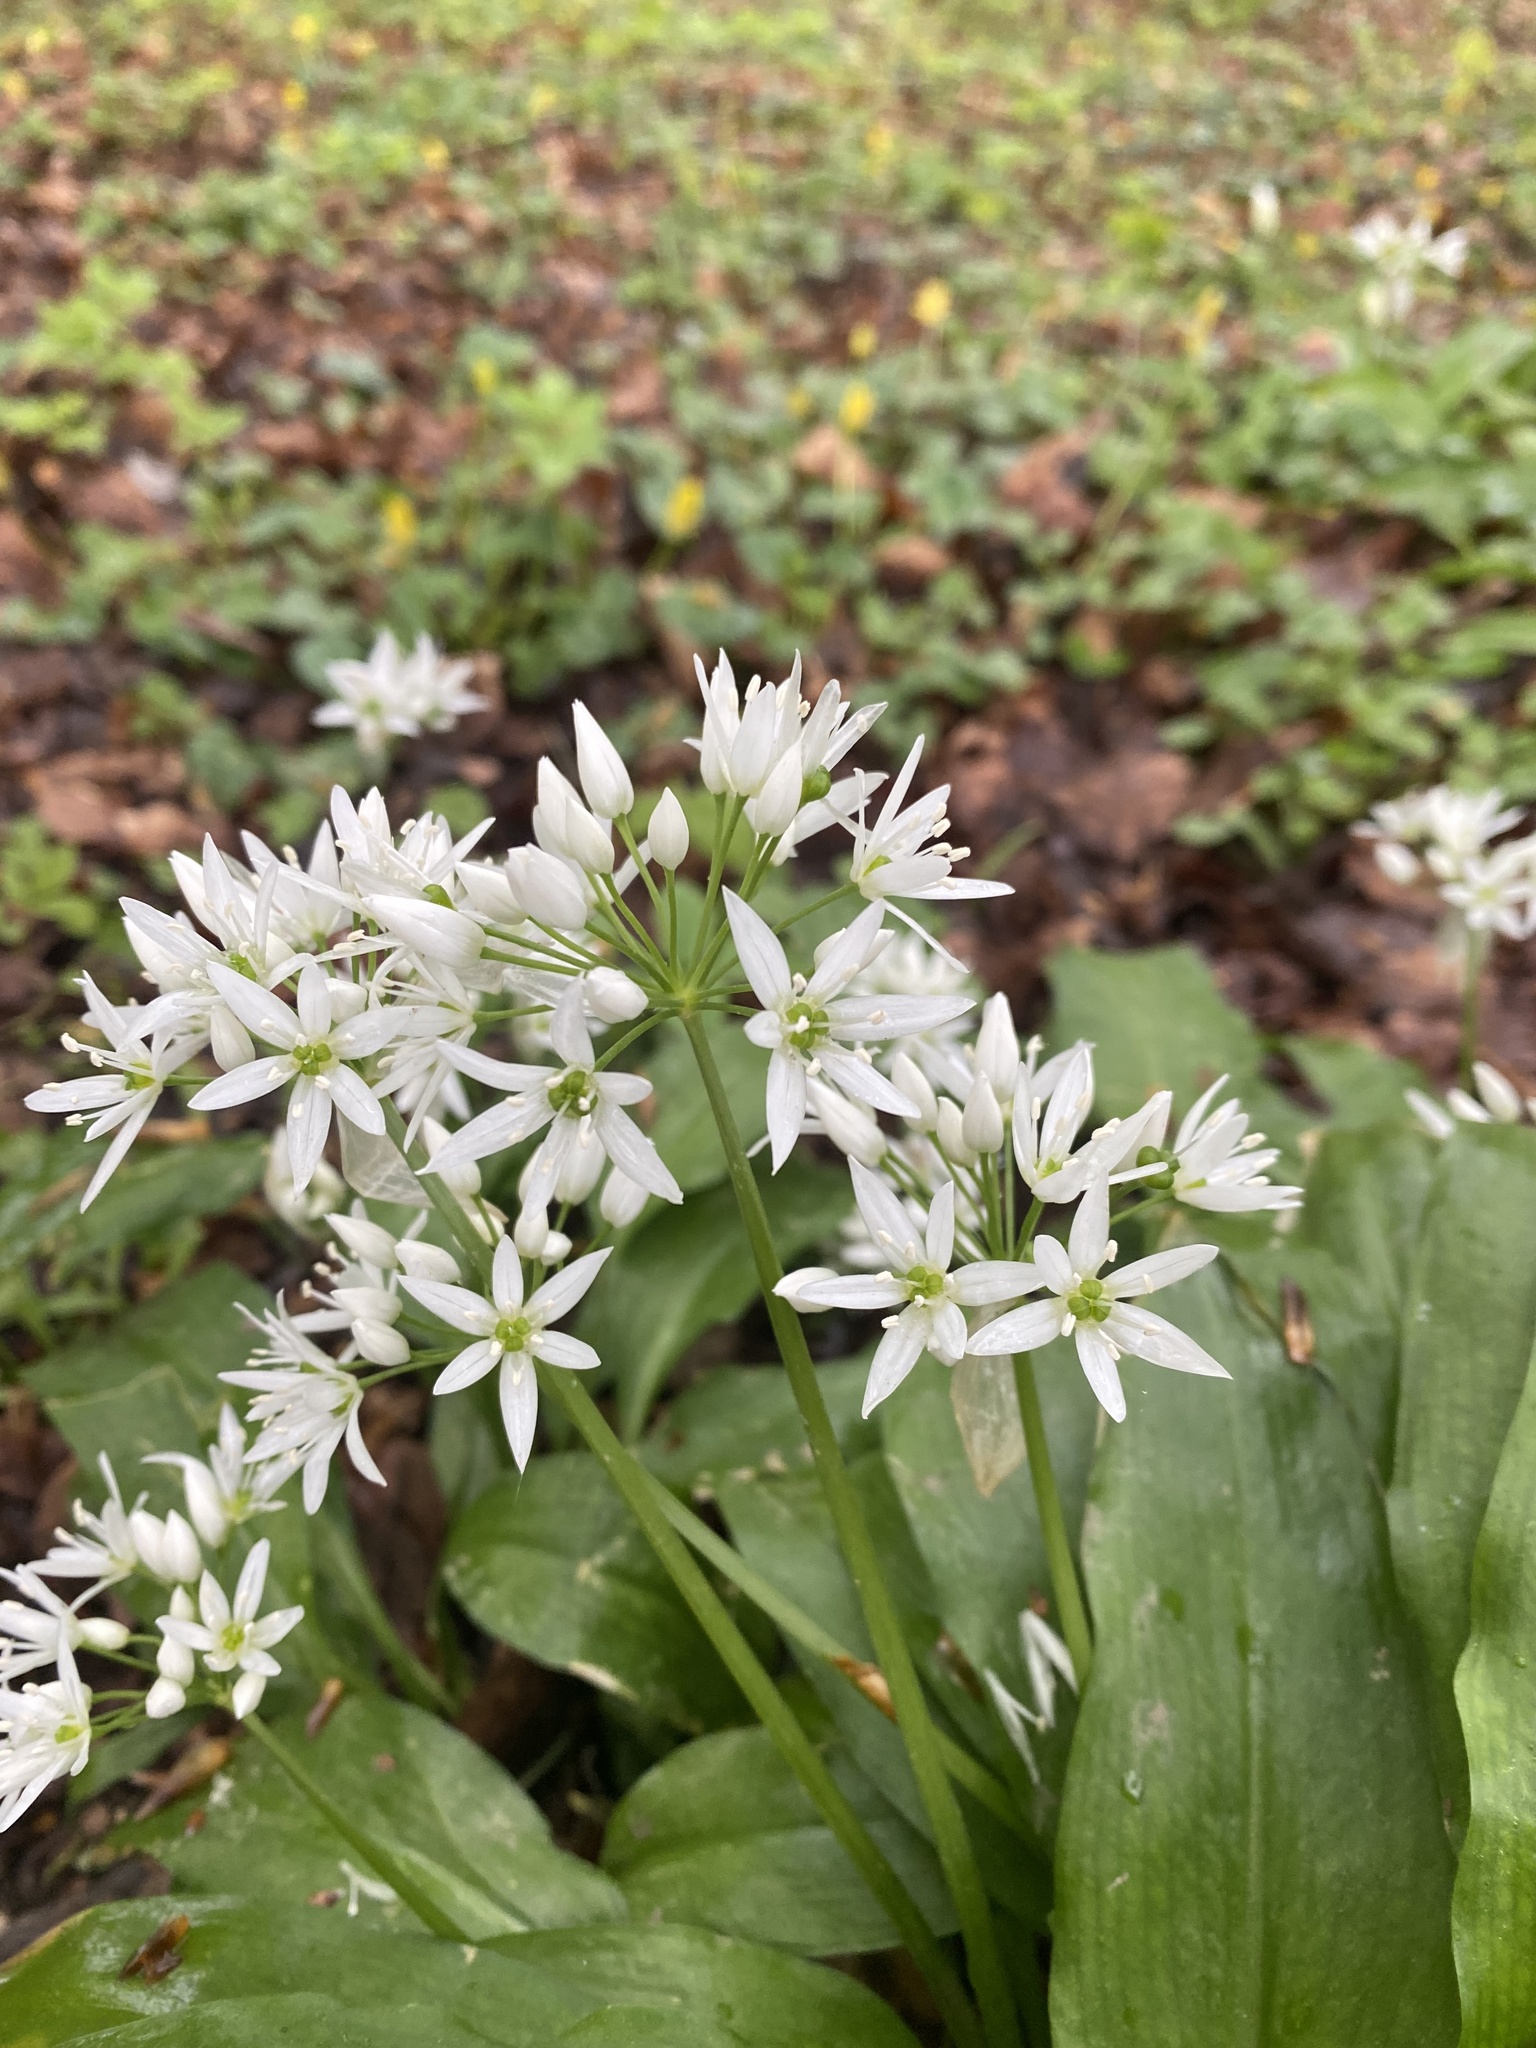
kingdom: Plantae
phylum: Tracheophyta
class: Liliopsida
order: Asparagales
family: Amaryllidaceae
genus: Allium
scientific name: Allium ursinum
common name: Ramsons
